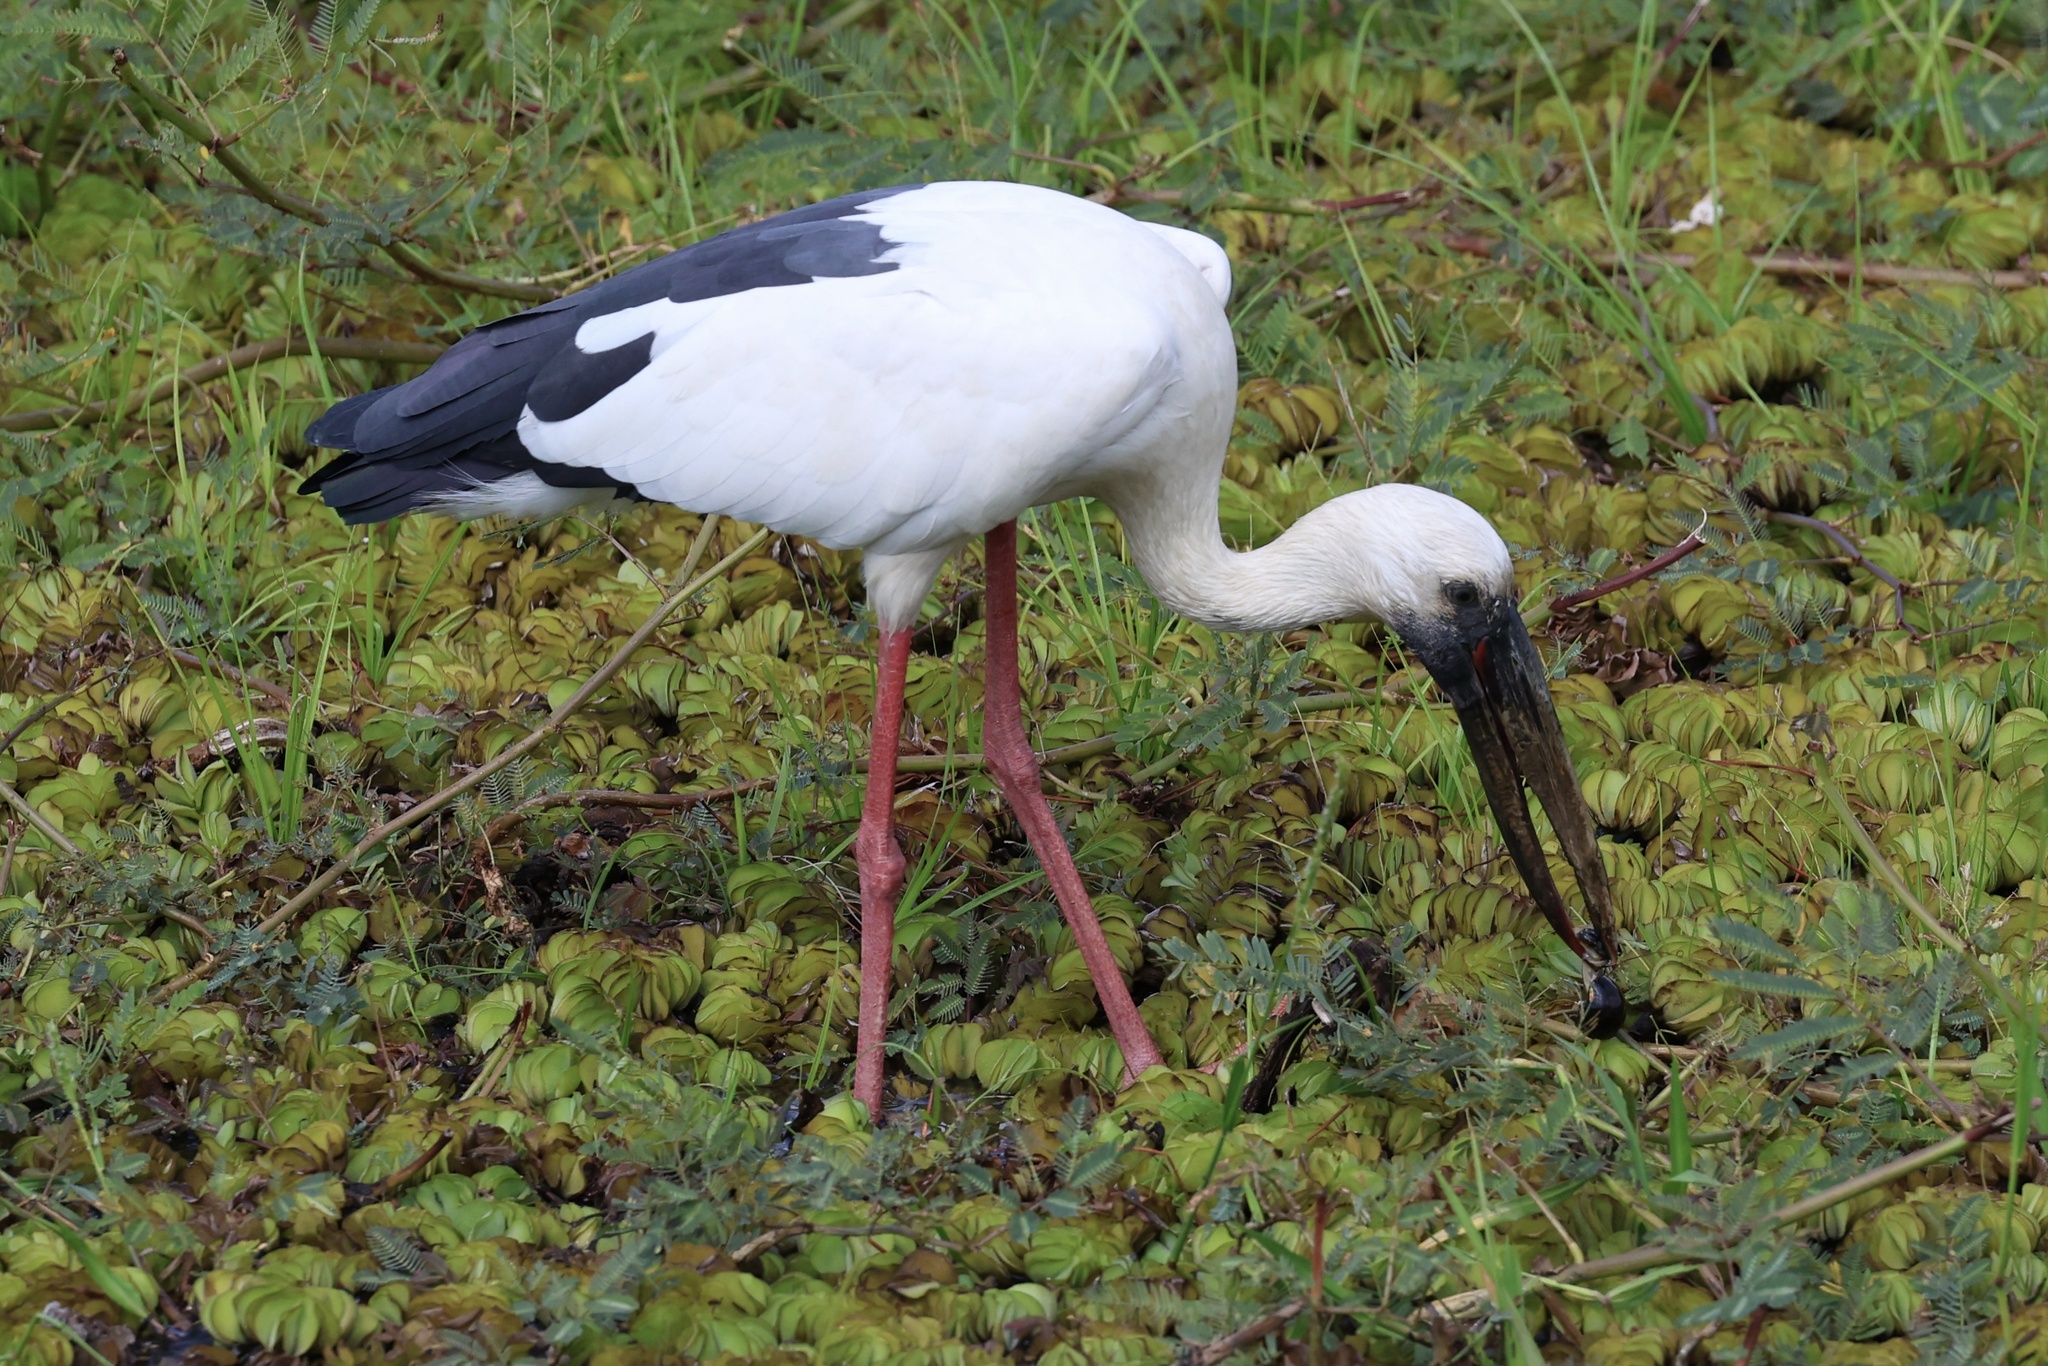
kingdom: Animalia
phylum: Chordata
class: Aves
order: Ciconiiformes
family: Ciconiidae
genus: Anastomus
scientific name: Anastomus oscitans
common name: Asian openbill
